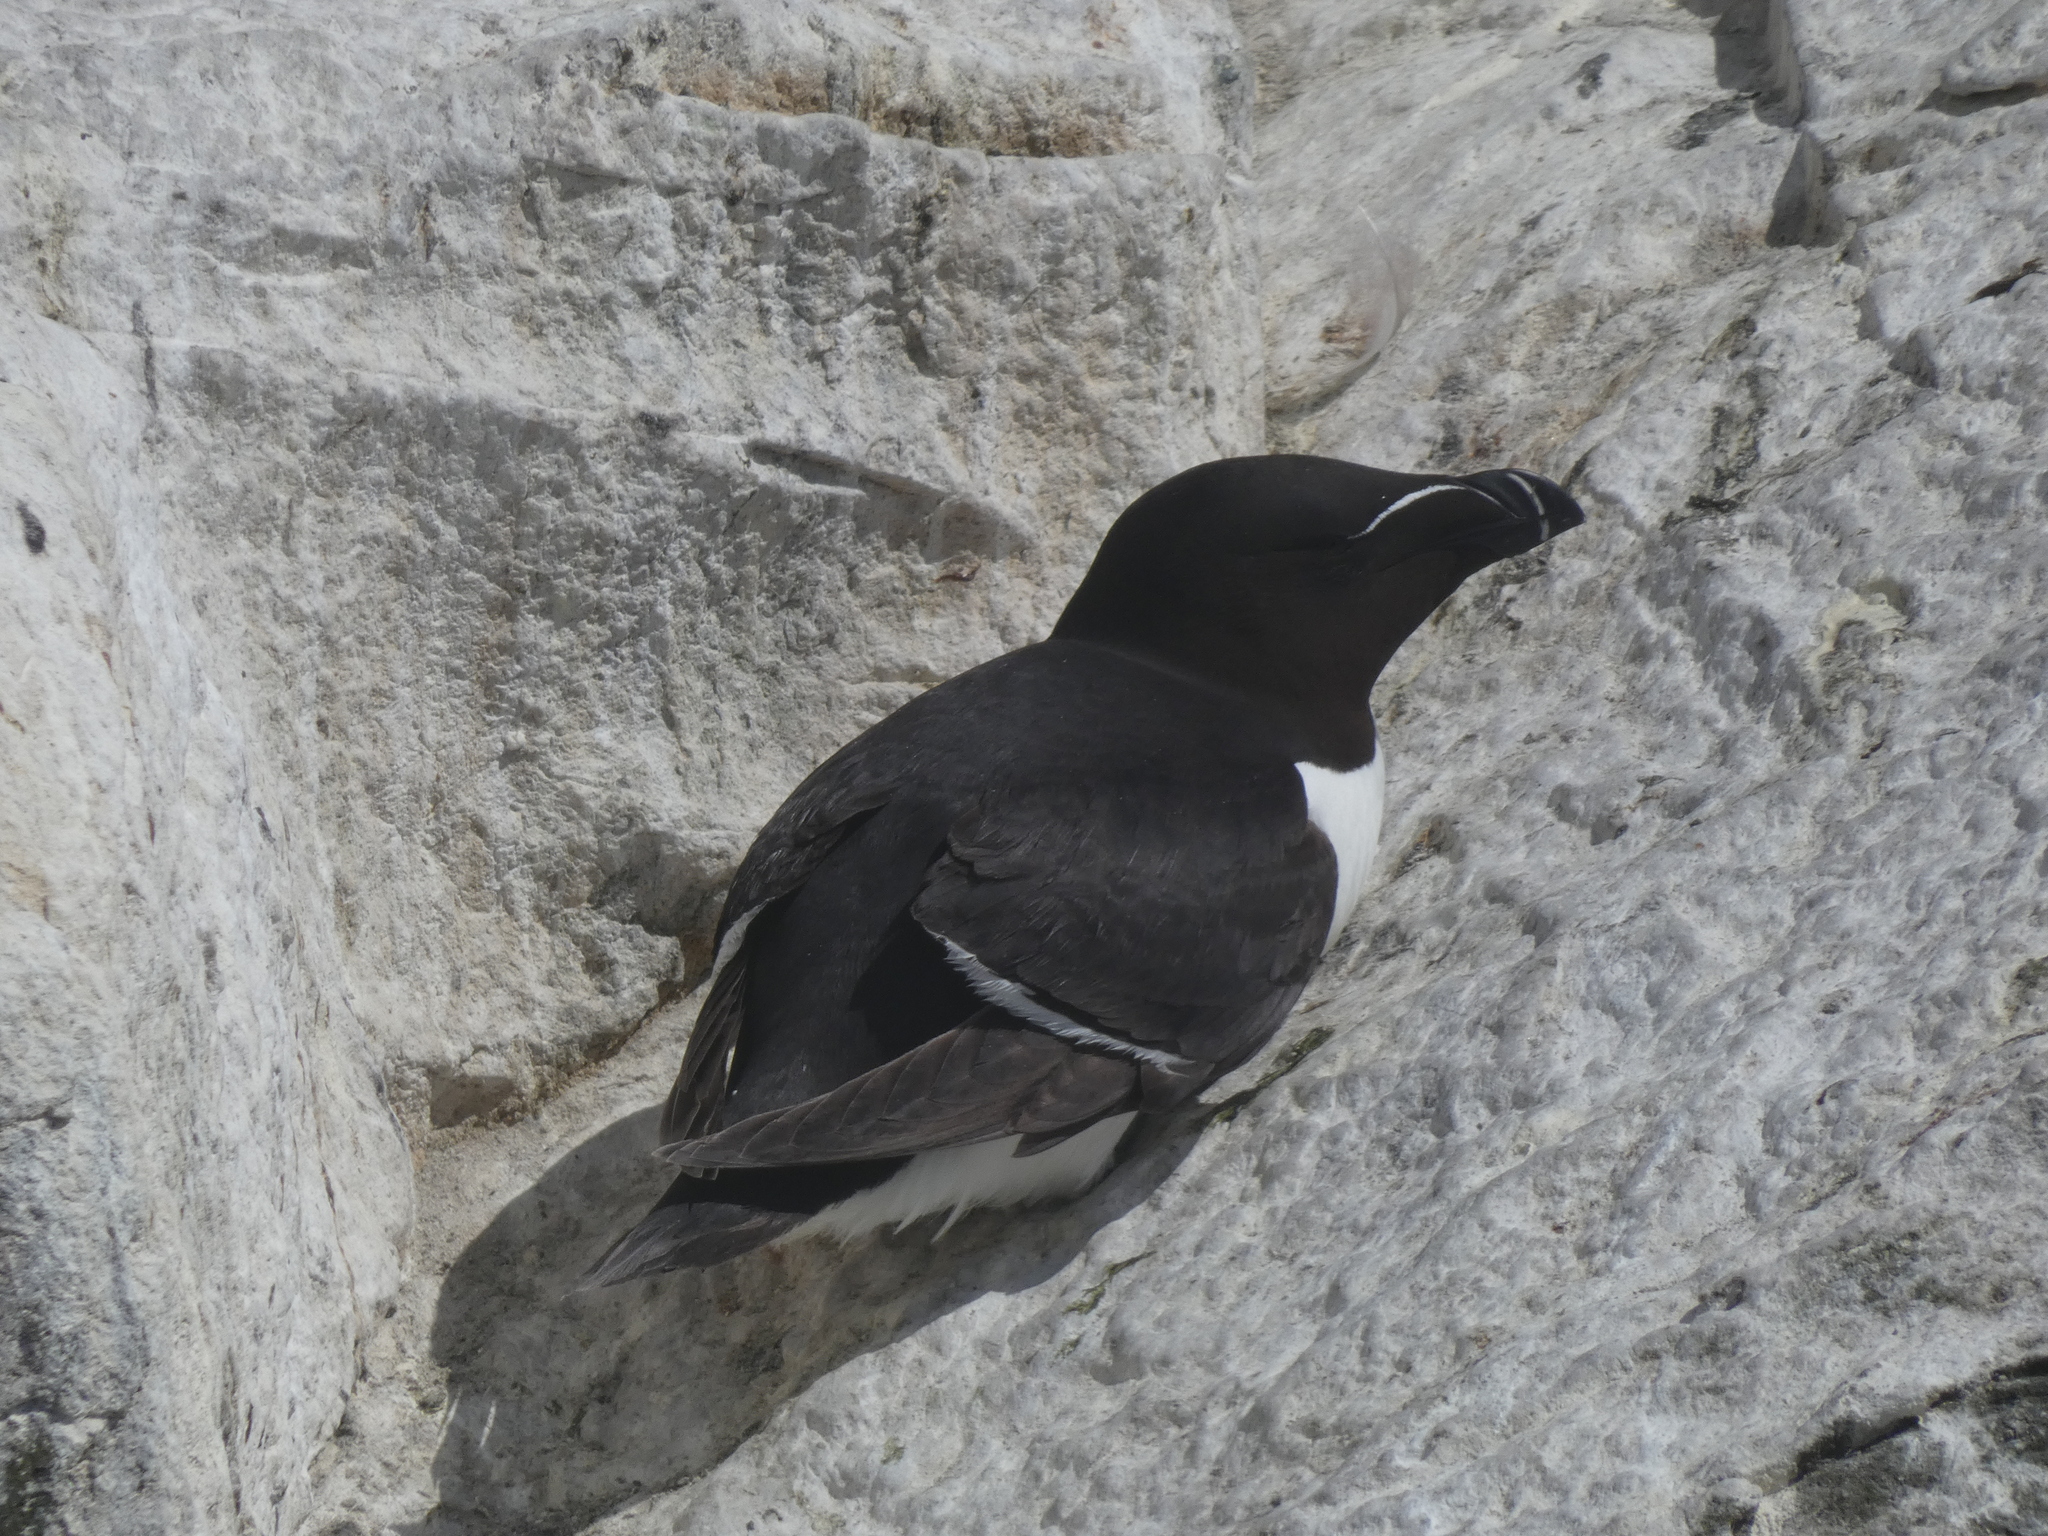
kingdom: Animalia
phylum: Chordata
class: Aves
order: Charadriiformes
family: Alcidae
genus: Alca
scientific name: Alca torda
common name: Razorbill
